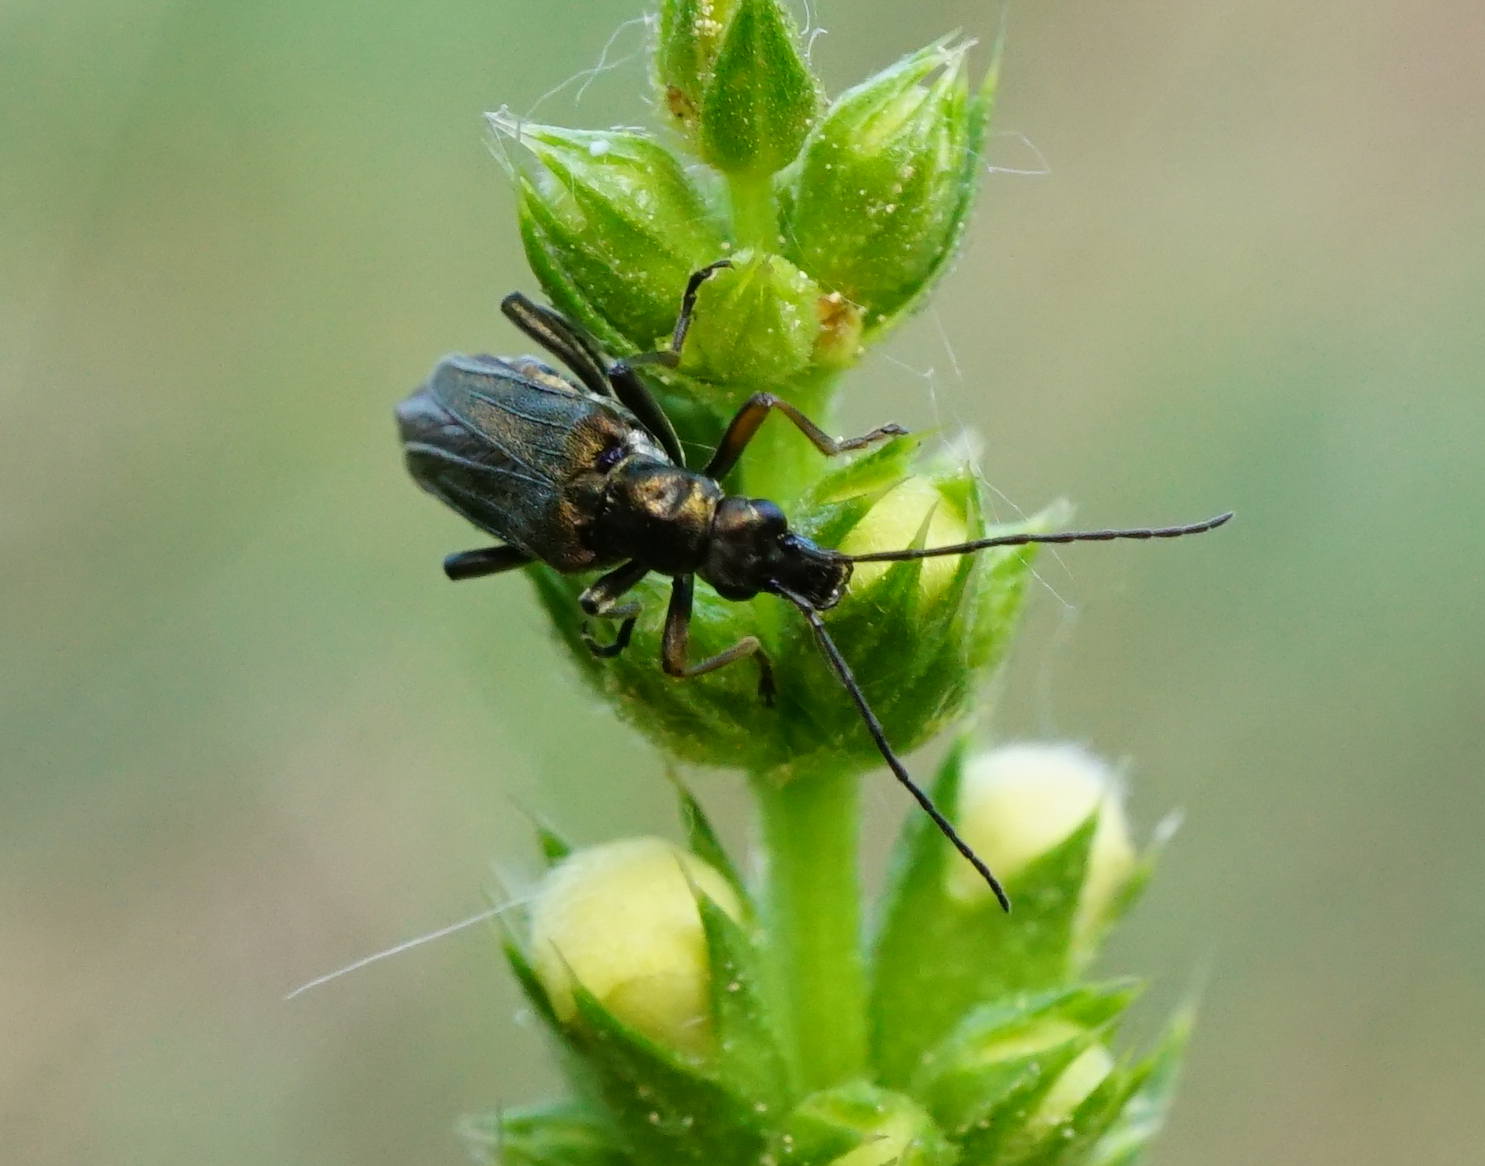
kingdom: Animalia
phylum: Arthropoda
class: Insecta
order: Coleoptera
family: Oedemeridae
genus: Oedemera
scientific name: Oedemera flavipes
